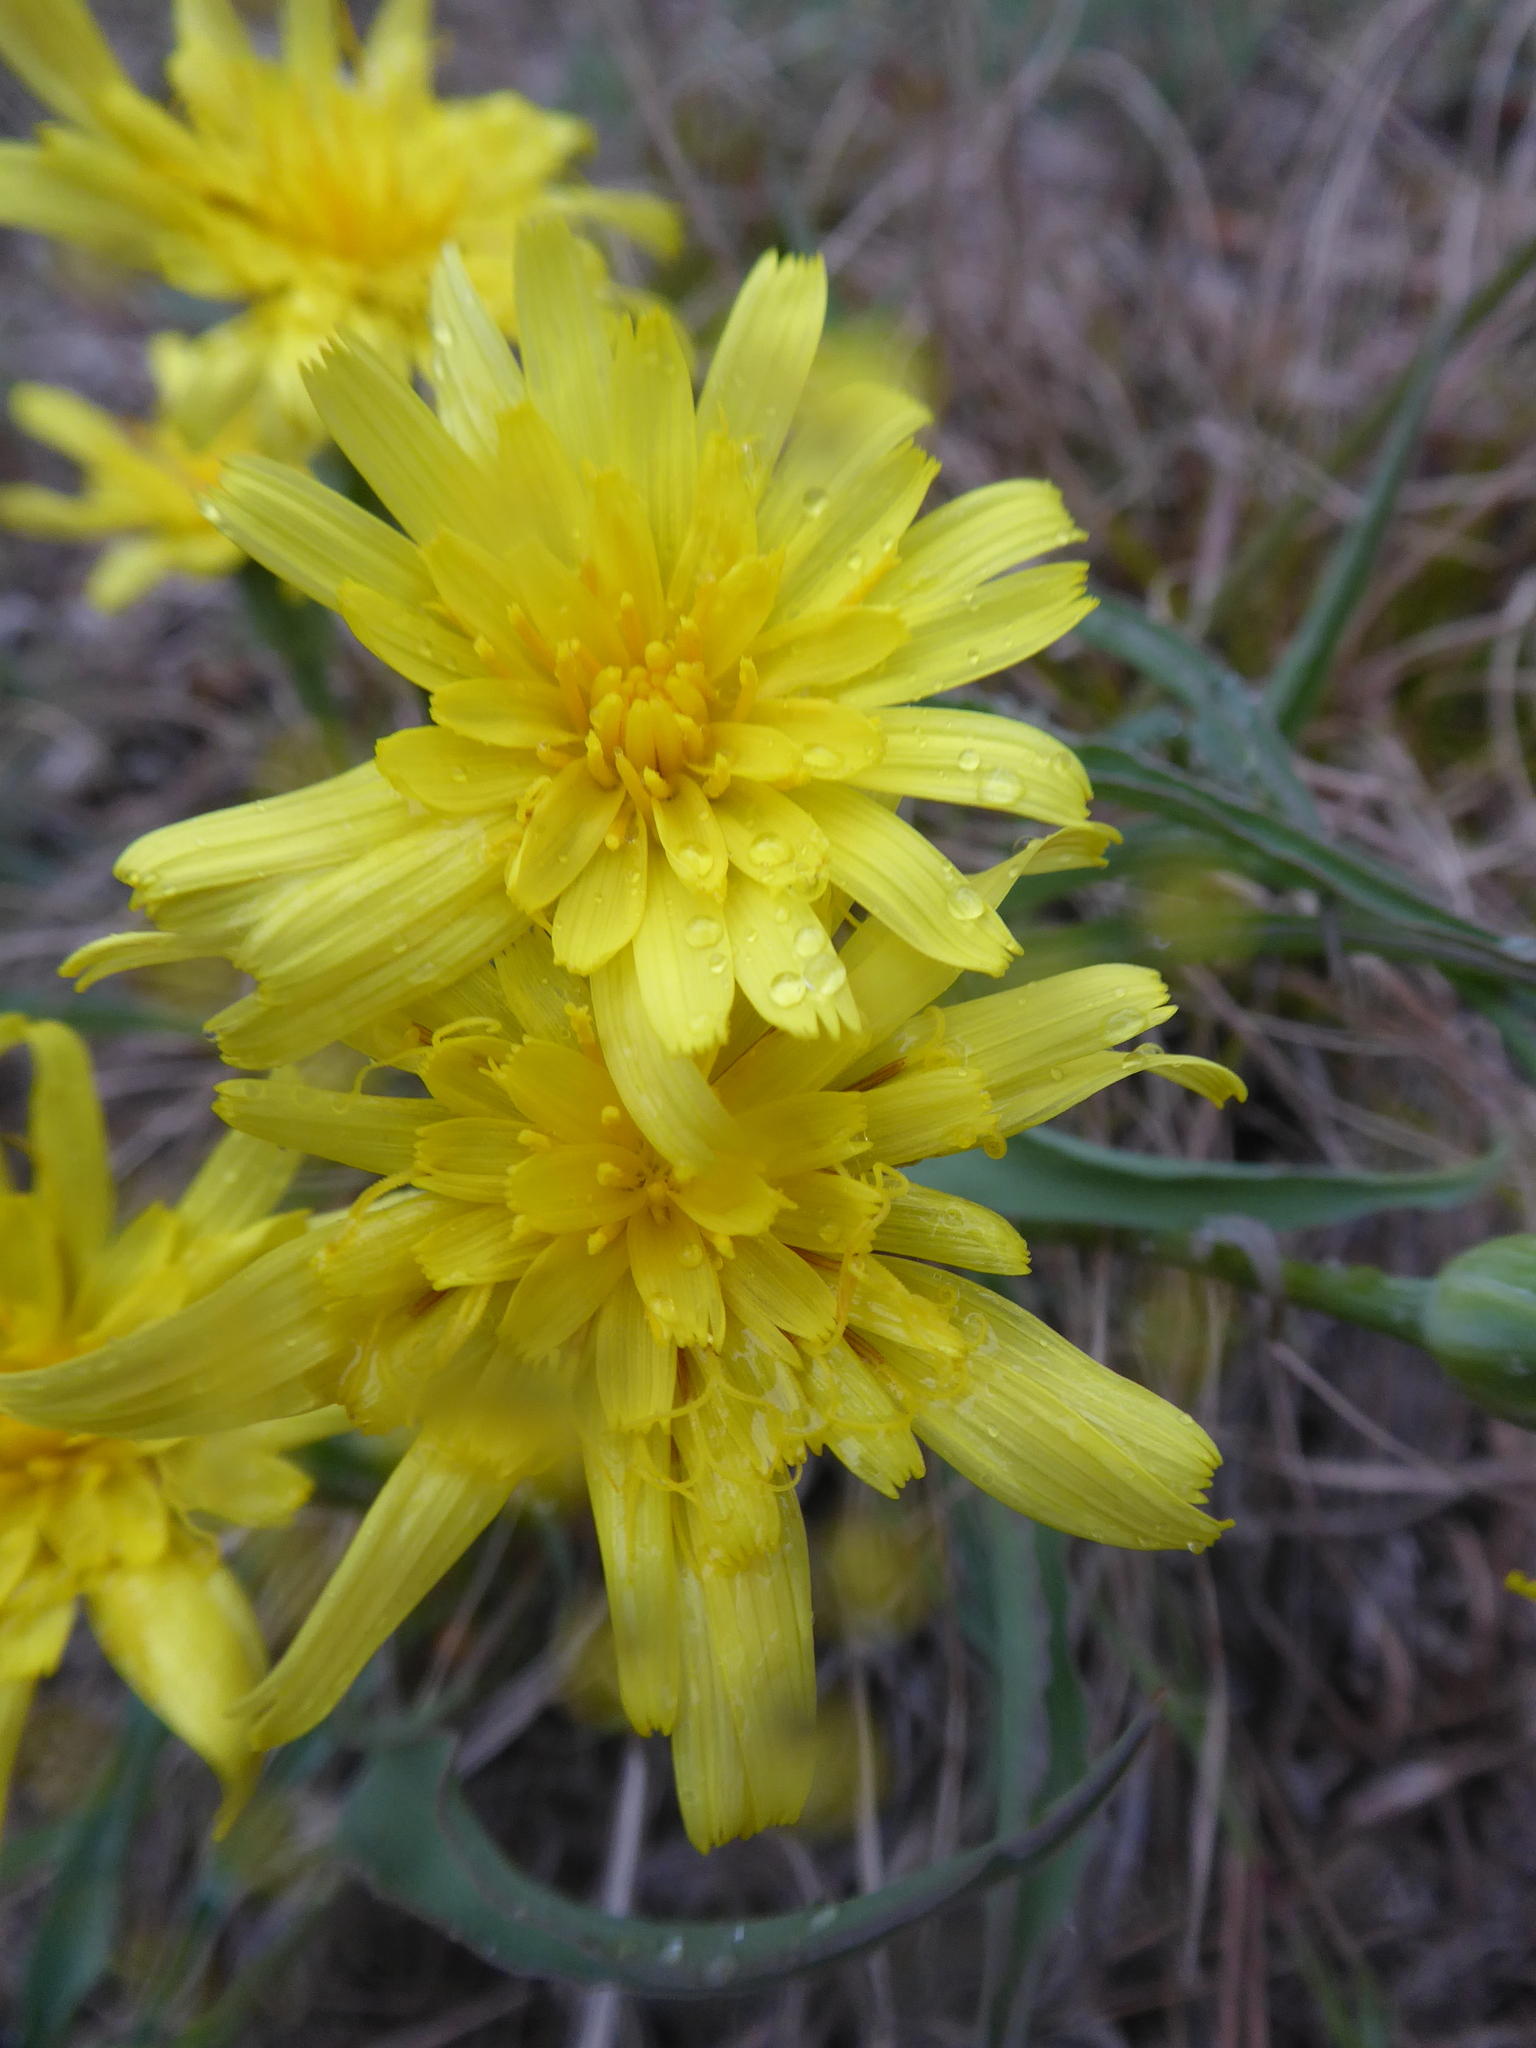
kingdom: Plantae
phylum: Tracheophyta
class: Magnoliopsida
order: Asterales
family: Asteraceae
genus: Takhtajaniantha
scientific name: Takhtajaniantha austriaca
